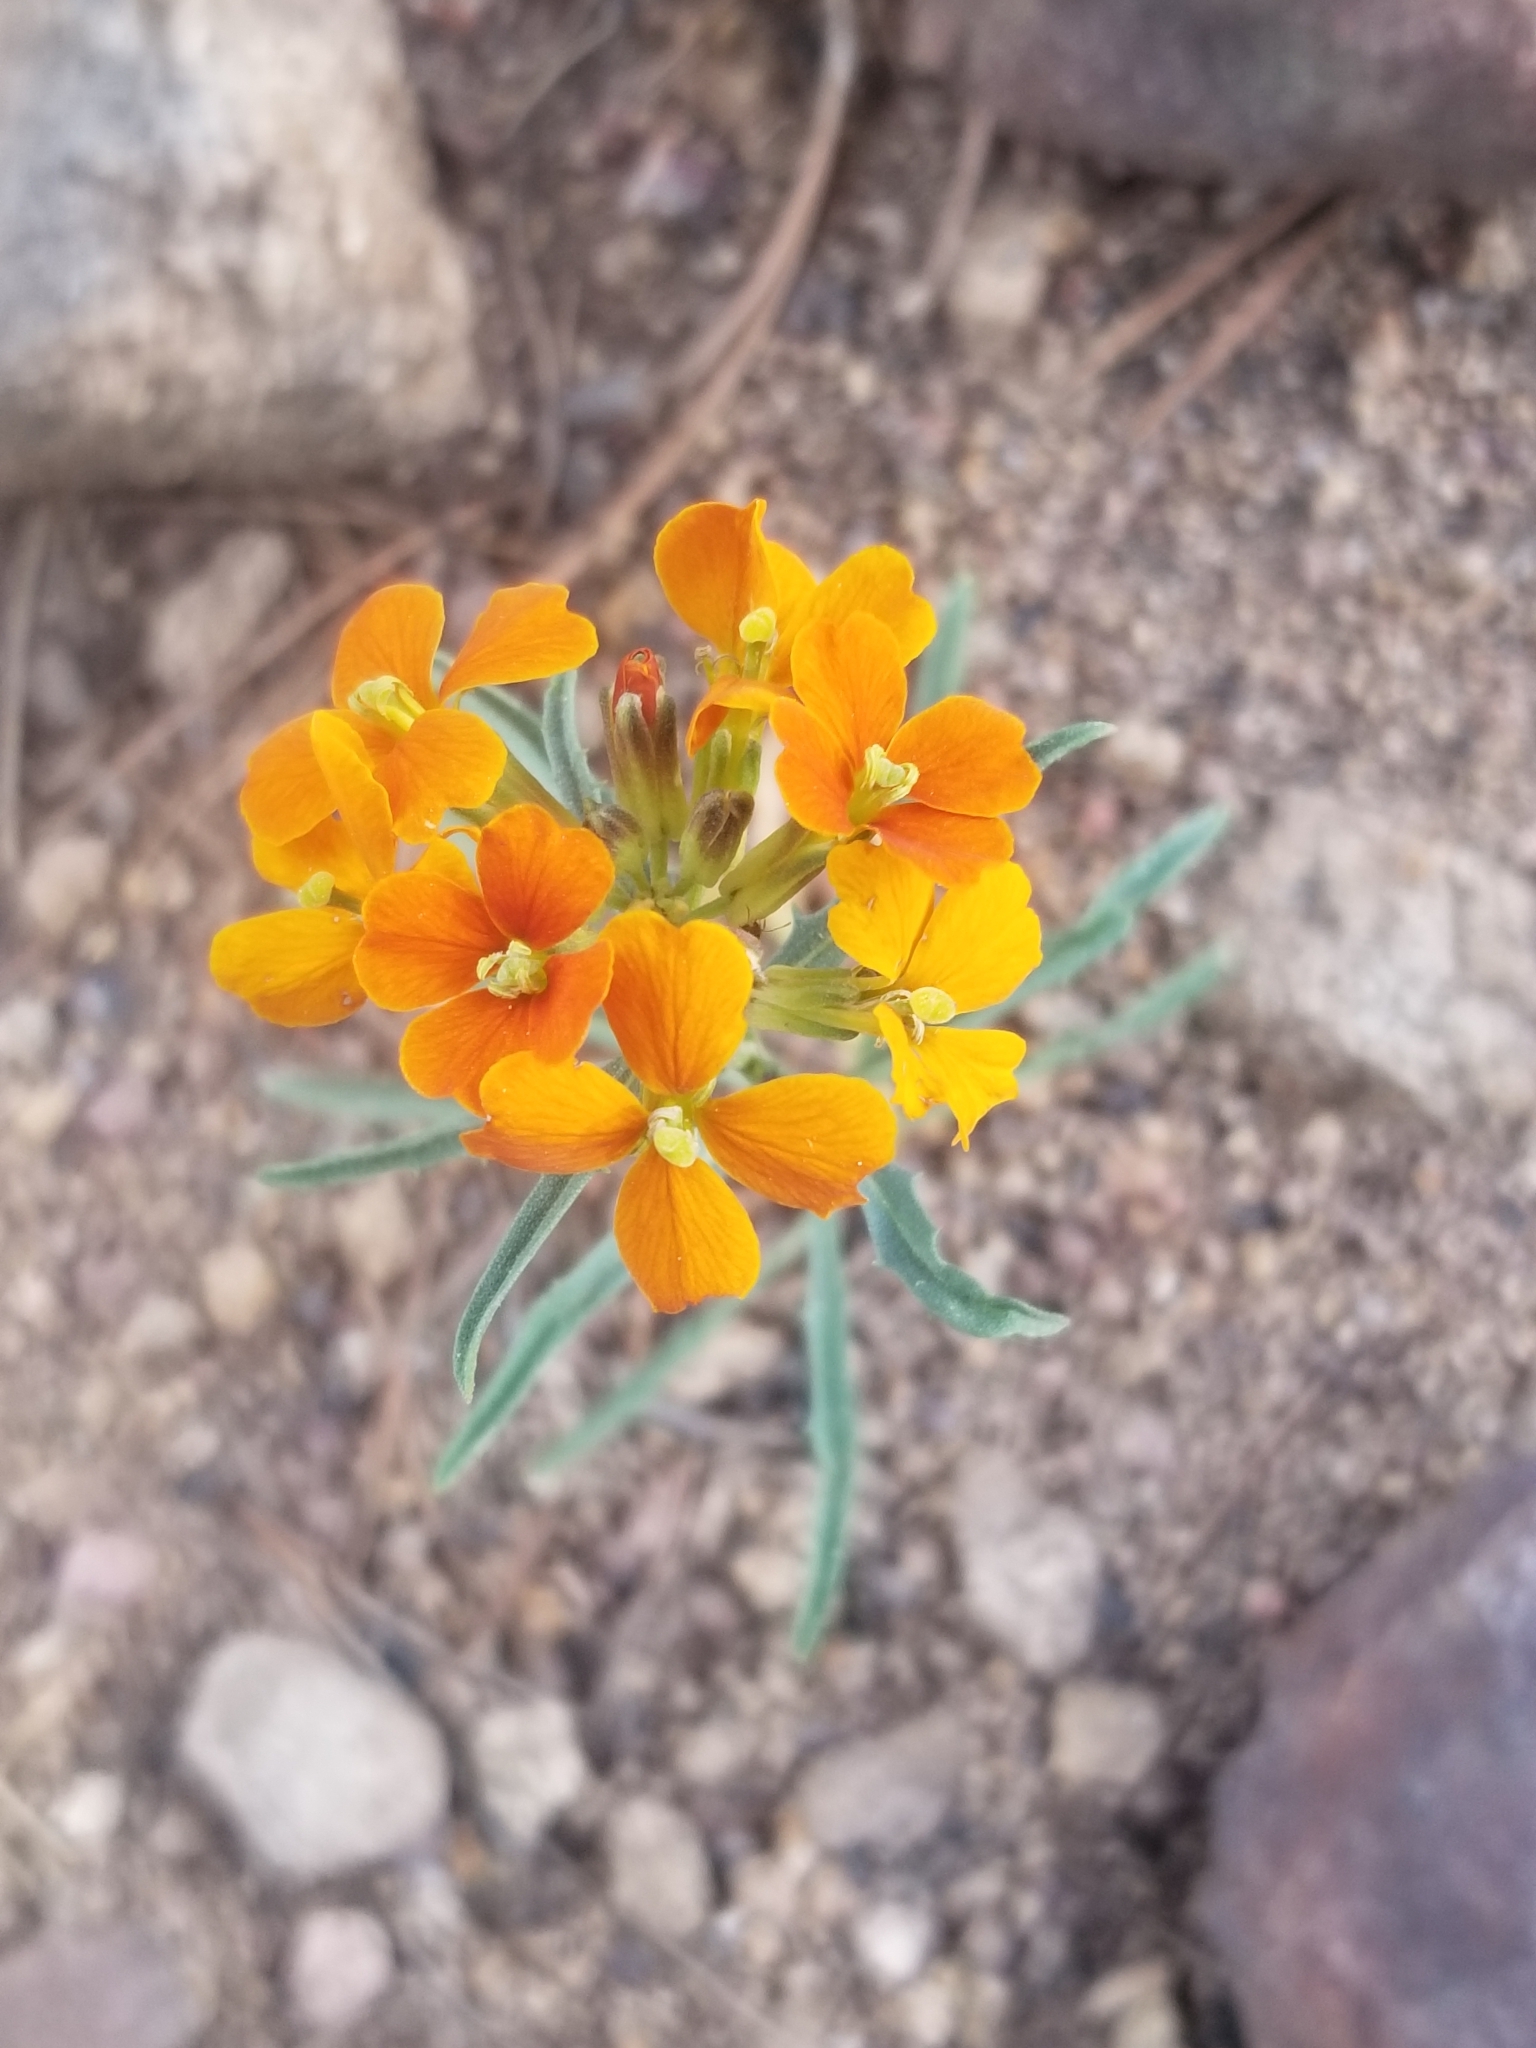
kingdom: Plantae
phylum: Tracheophyta
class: Magnoliopsida
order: Brassicales
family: Brassicaceae
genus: Erysimum
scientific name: Erysimum capitatum
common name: Western wallflower
